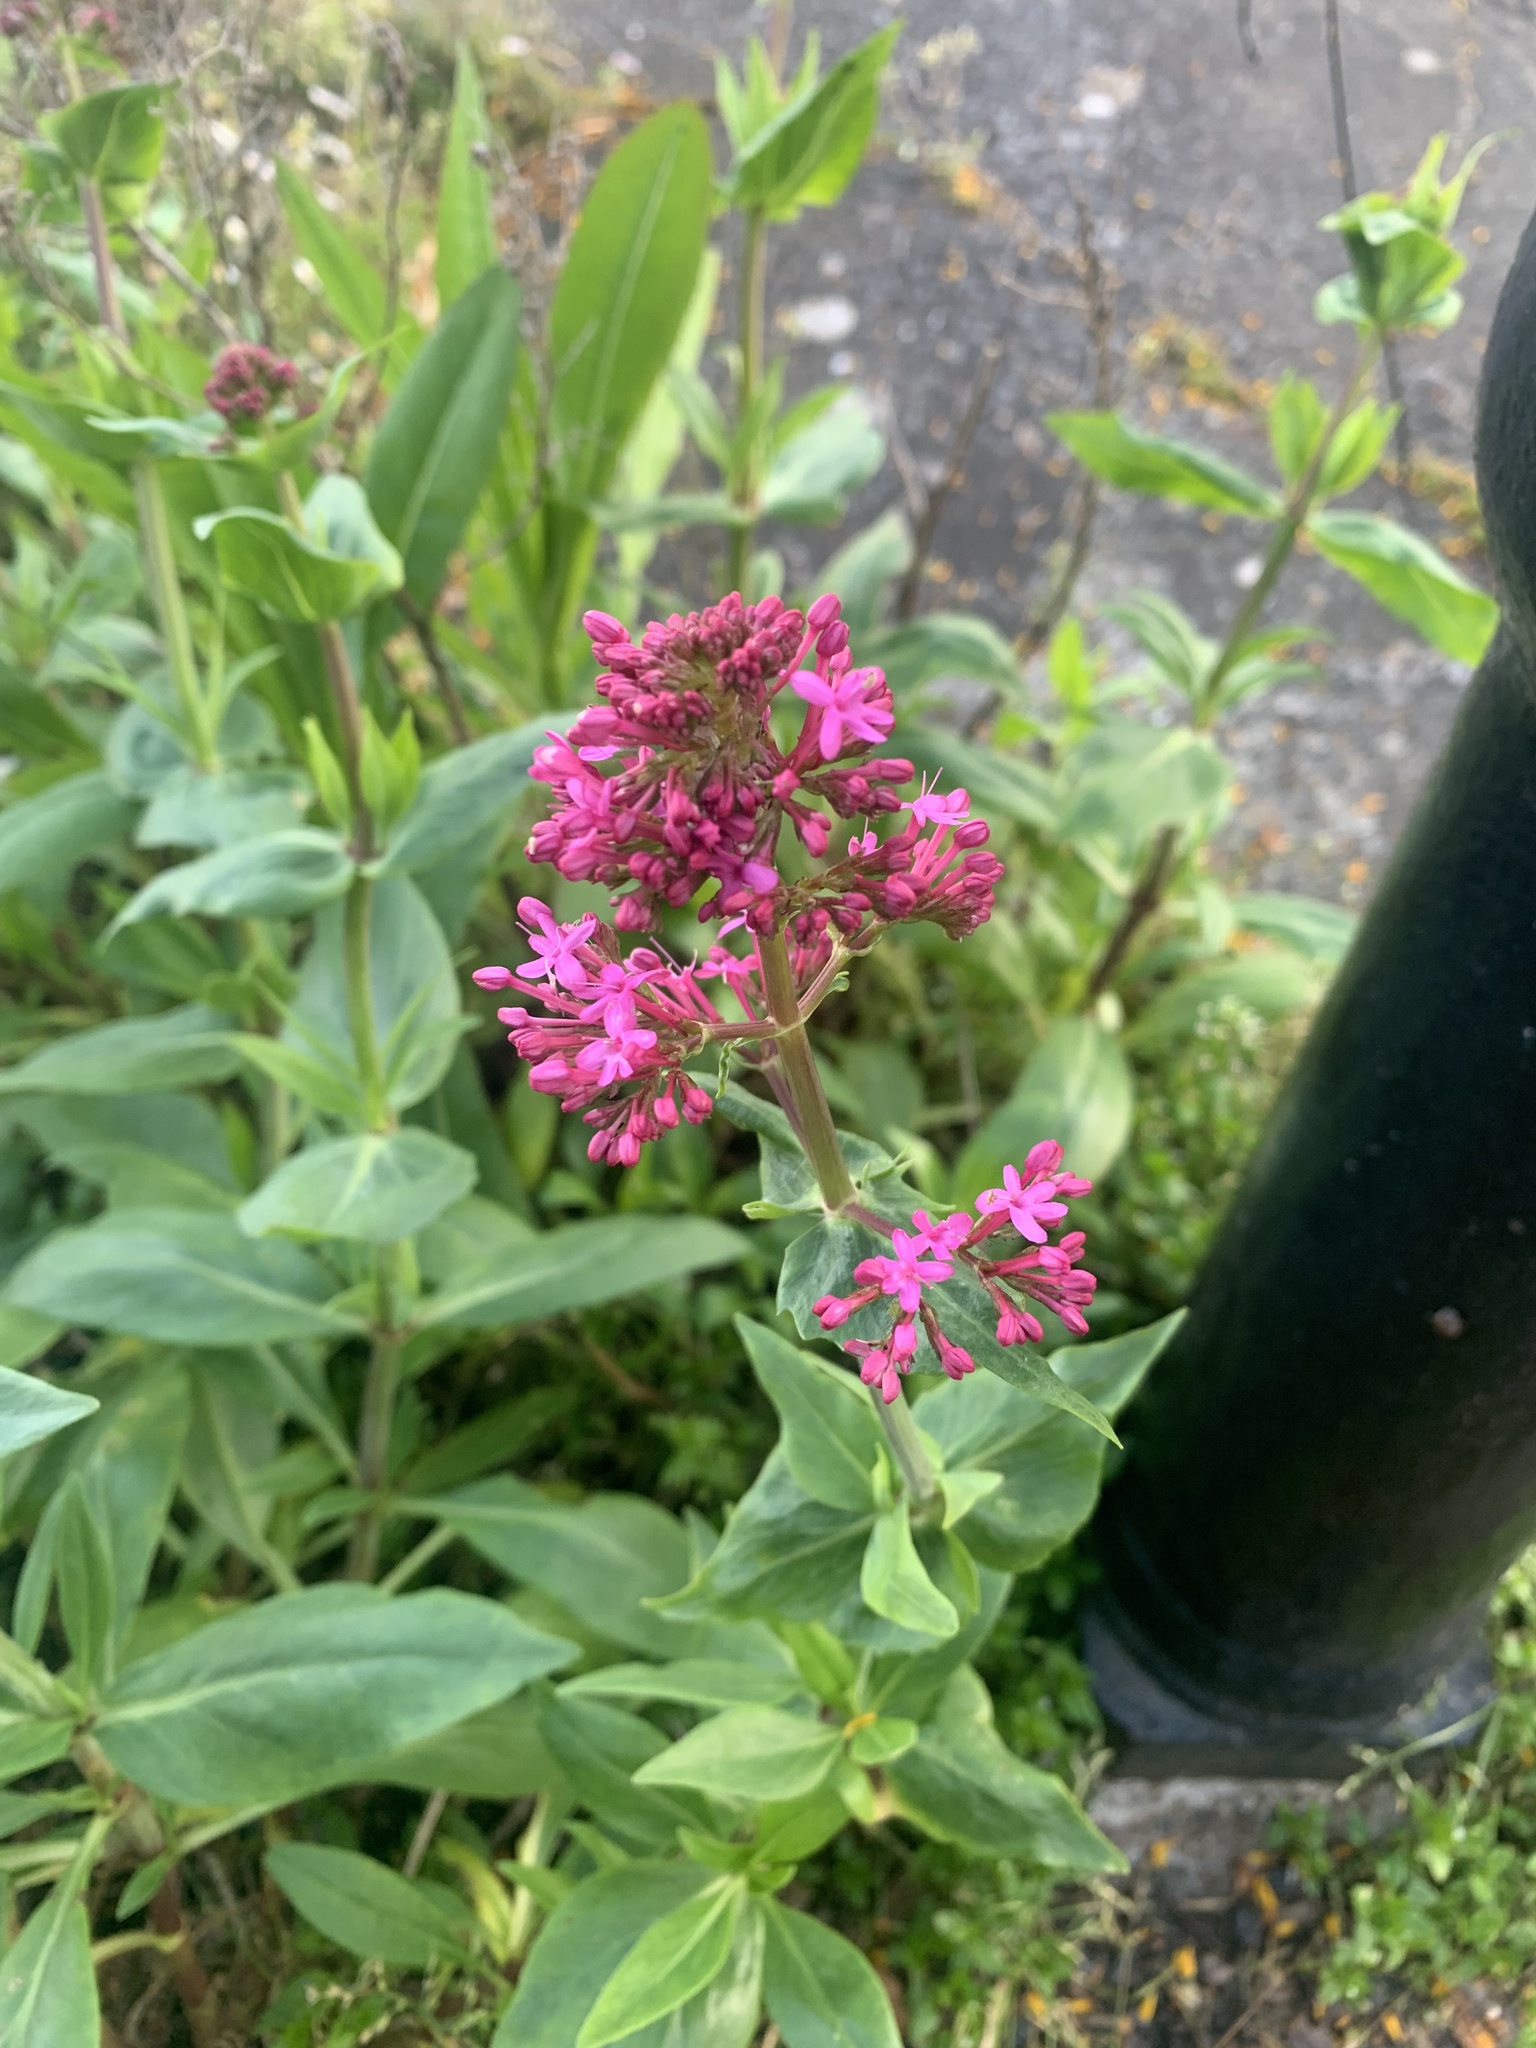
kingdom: Plantae
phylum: Tracheophyta
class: Magnoliopsida
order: Dipsacales
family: Caprifoliaceae
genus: Centranthus
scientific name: Centranthus ruber
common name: Red valerian
